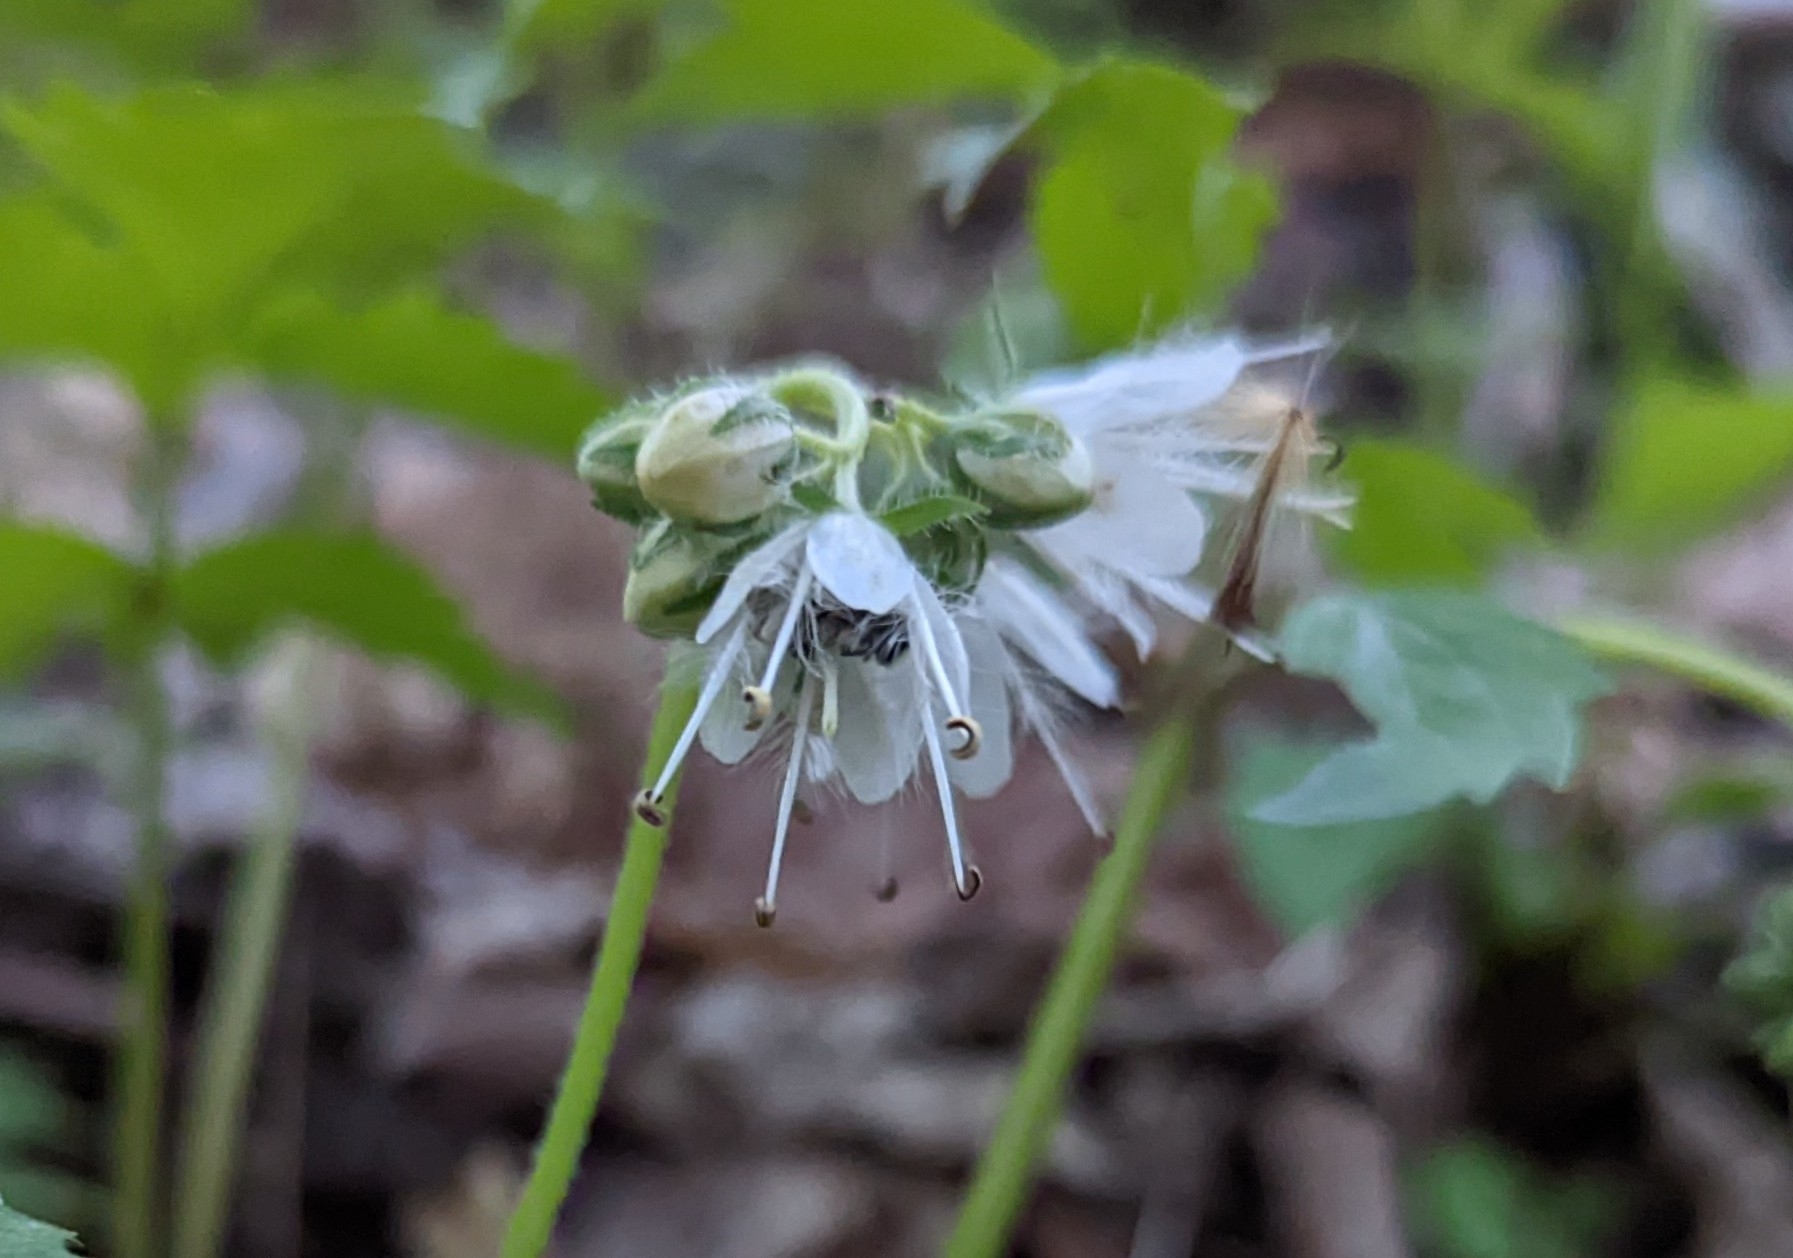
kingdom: Plantae
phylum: Tracheophyta
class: Magnoliopsida
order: Boraginales
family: Hydrophyllaceae
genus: Hydrophyllum
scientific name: Hydrophyllum virginianum
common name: Virginia waterleaf
